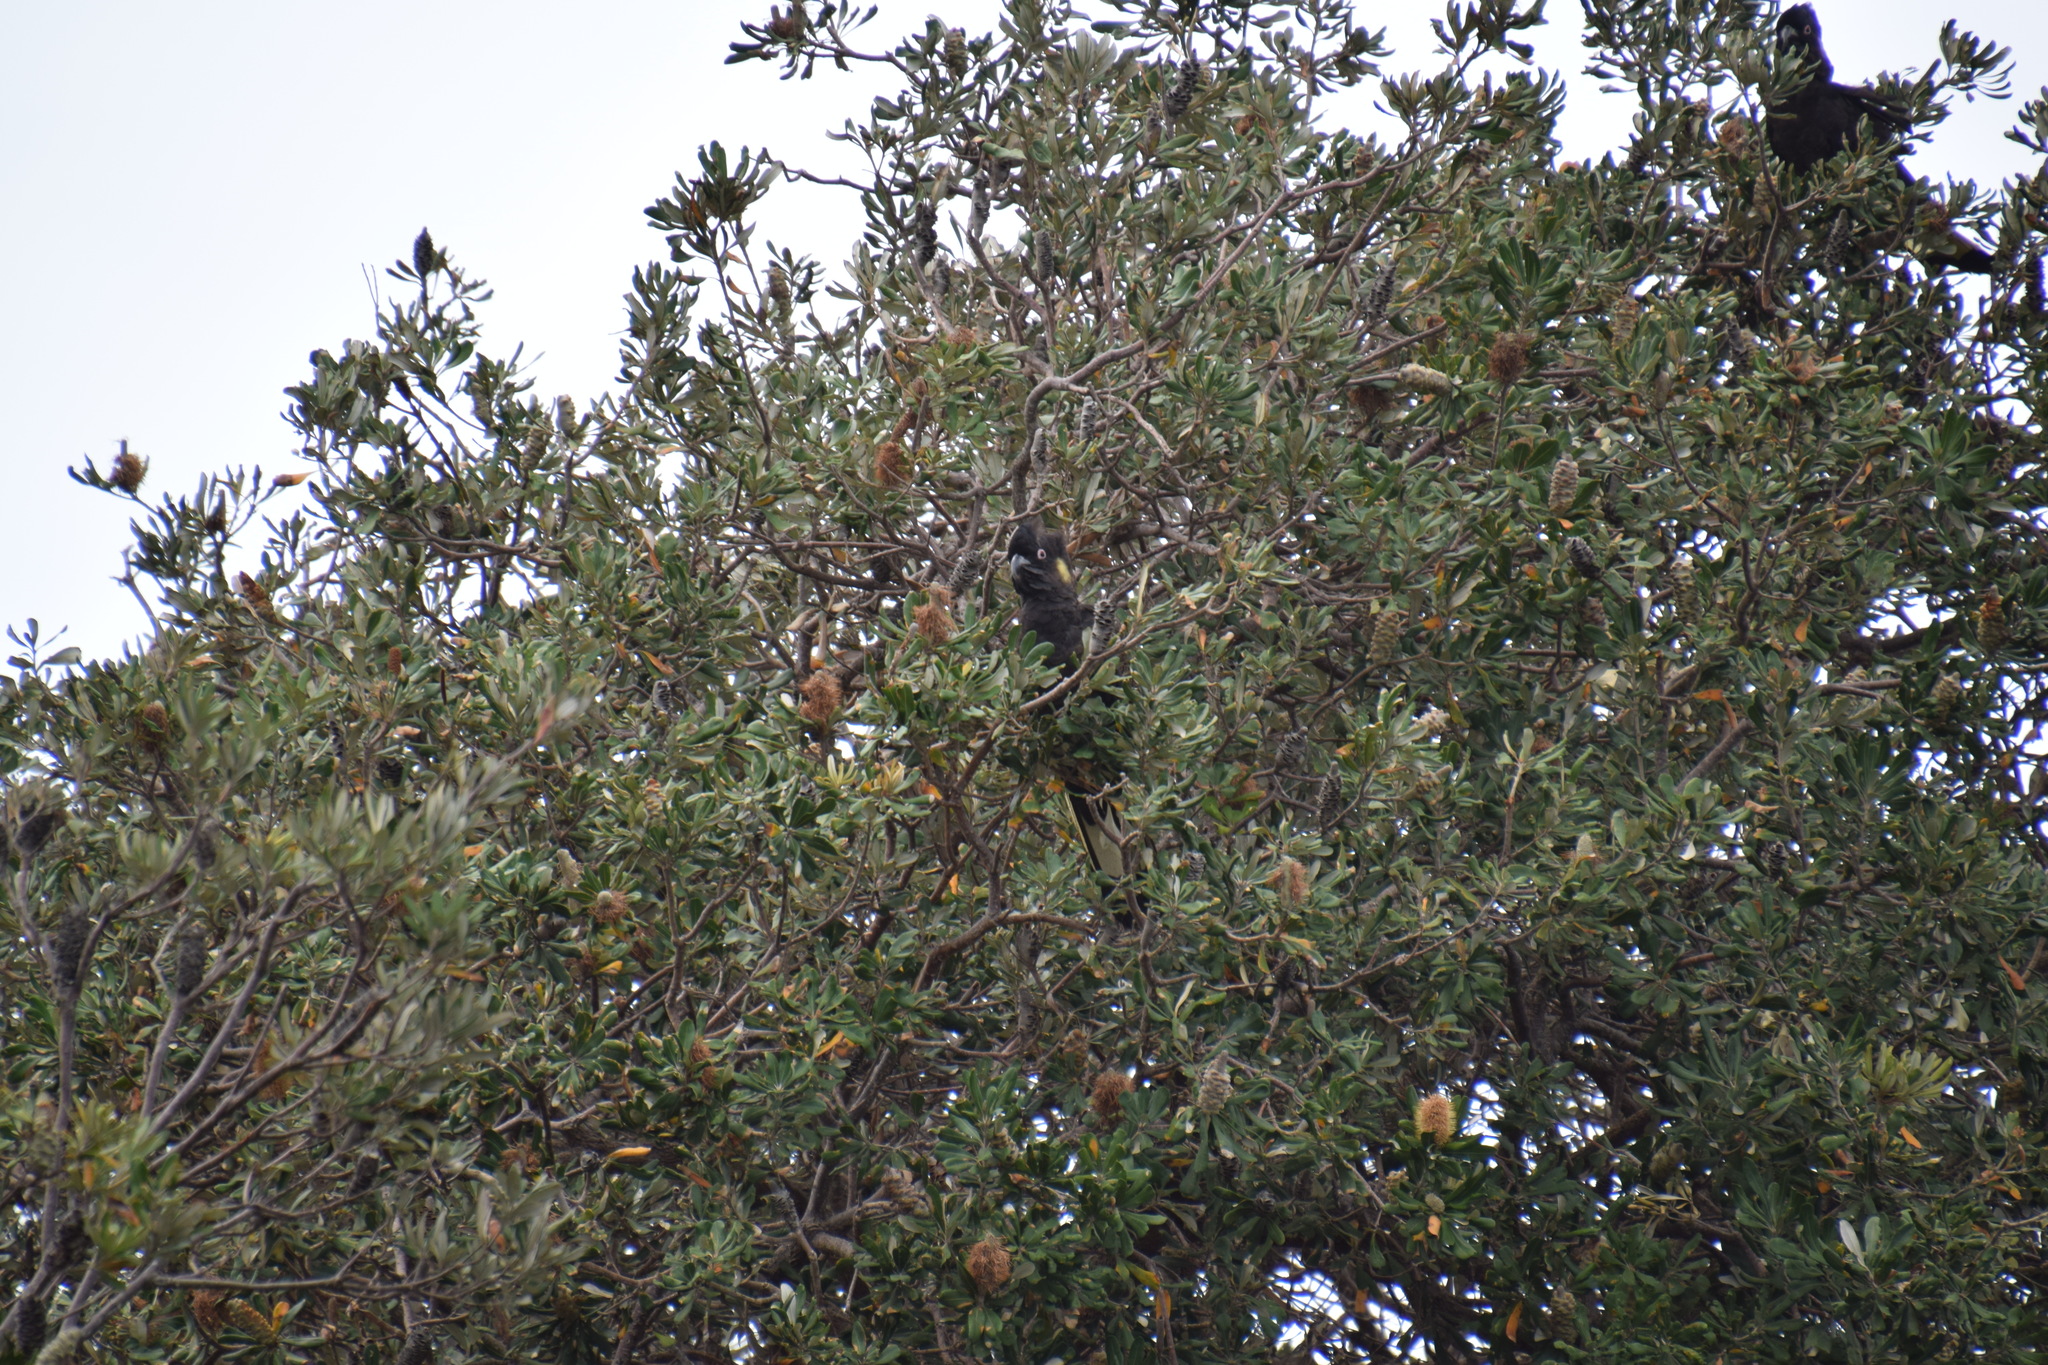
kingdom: Animalia
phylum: Chordata
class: Aves
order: Psittaciformes
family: Cacatuidae
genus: Zanda
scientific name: Zanda funerea
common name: Yellow-tailed black-cockatoo
